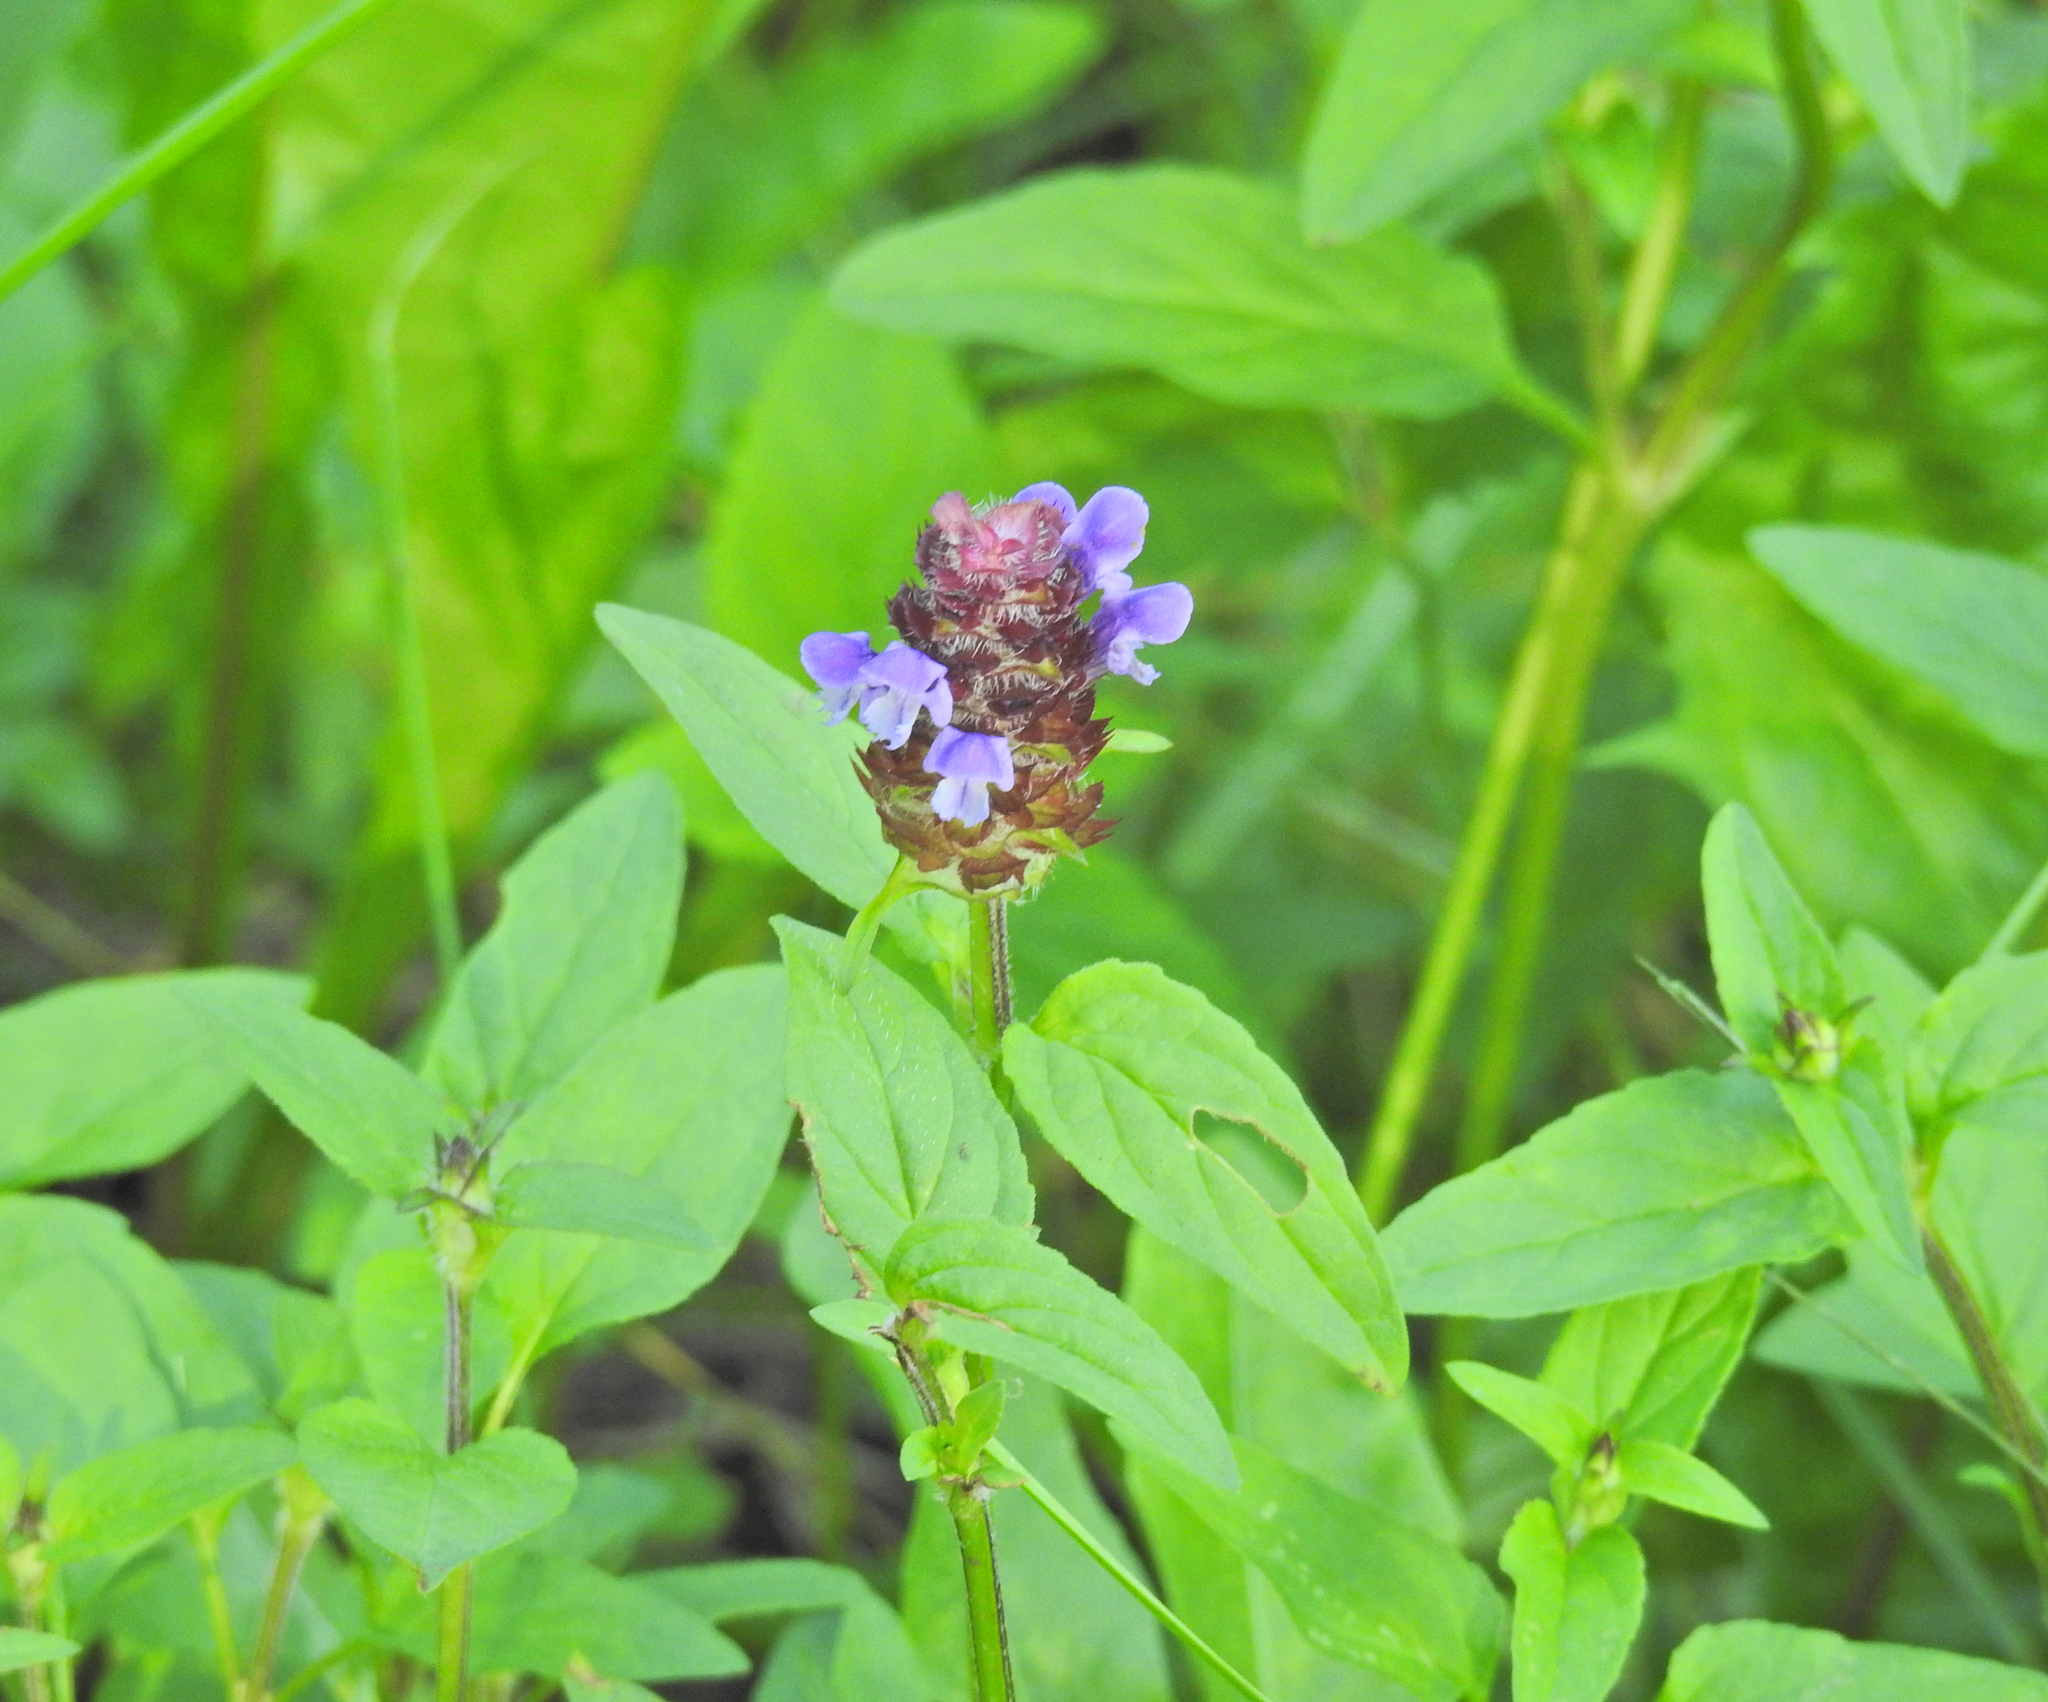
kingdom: Plantae
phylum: Tracheophyta
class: Magnoliopsida
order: Lamiales
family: Lamiaceae
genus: Prunella
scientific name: Prunella vulgaris
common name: Heal-all
